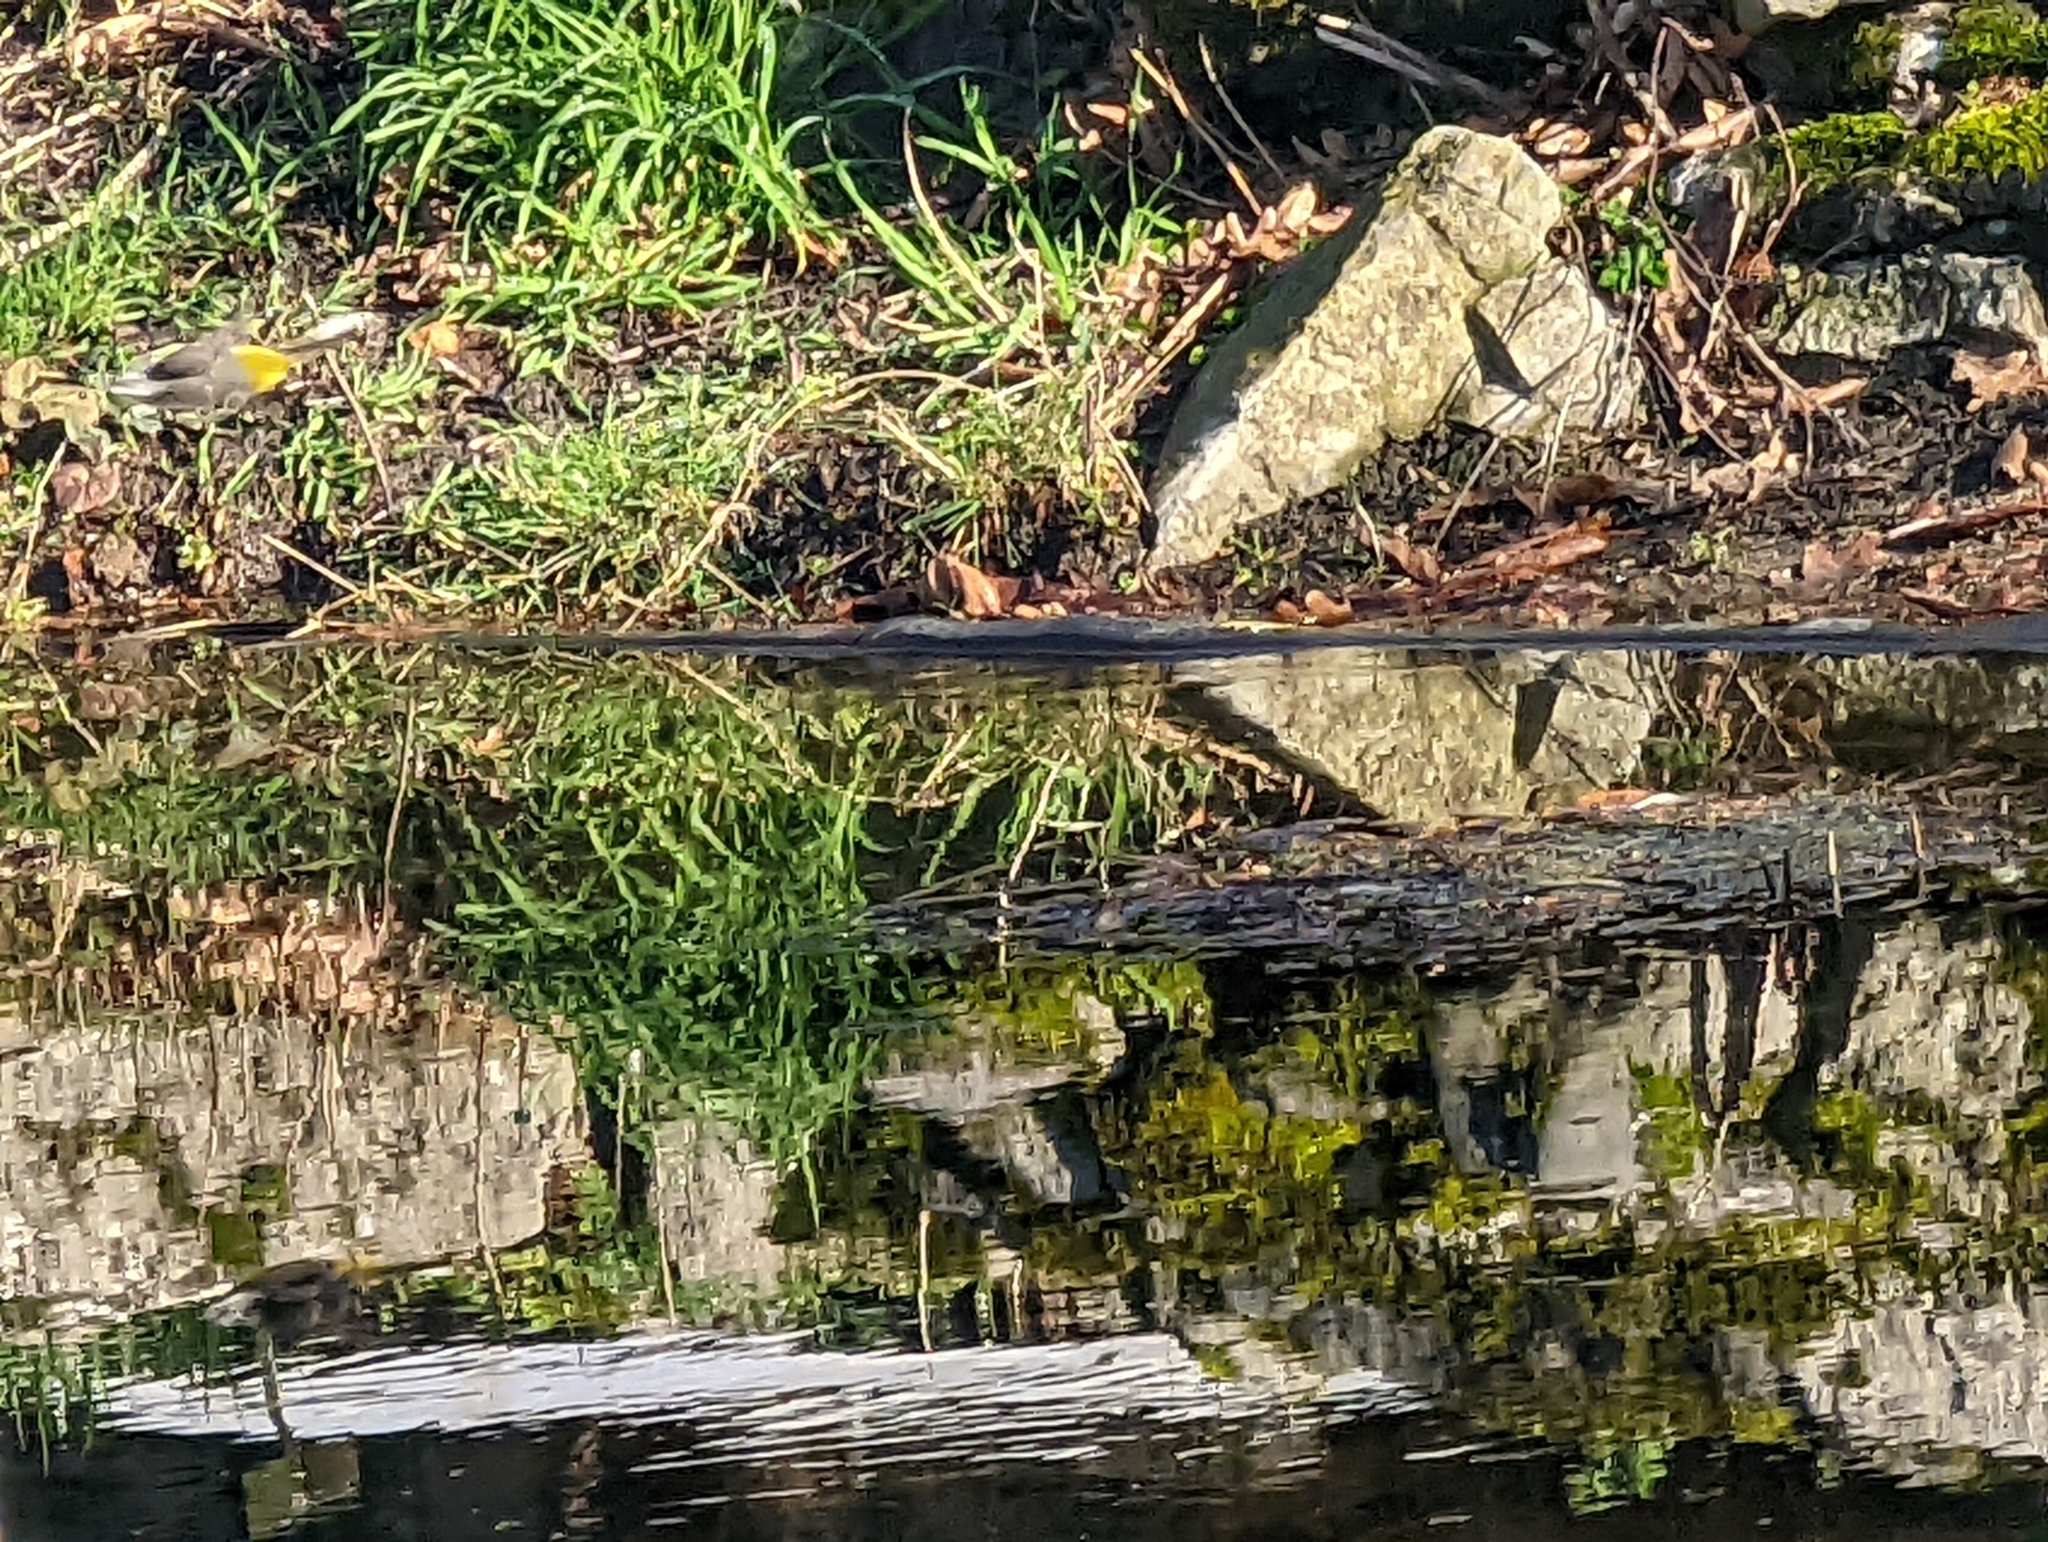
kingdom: Animalia
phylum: Chordata
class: Aves
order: Passeriformes
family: Motacillidae
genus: Motacilla
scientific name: Motacilla cinerea
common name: Grey wagtail
